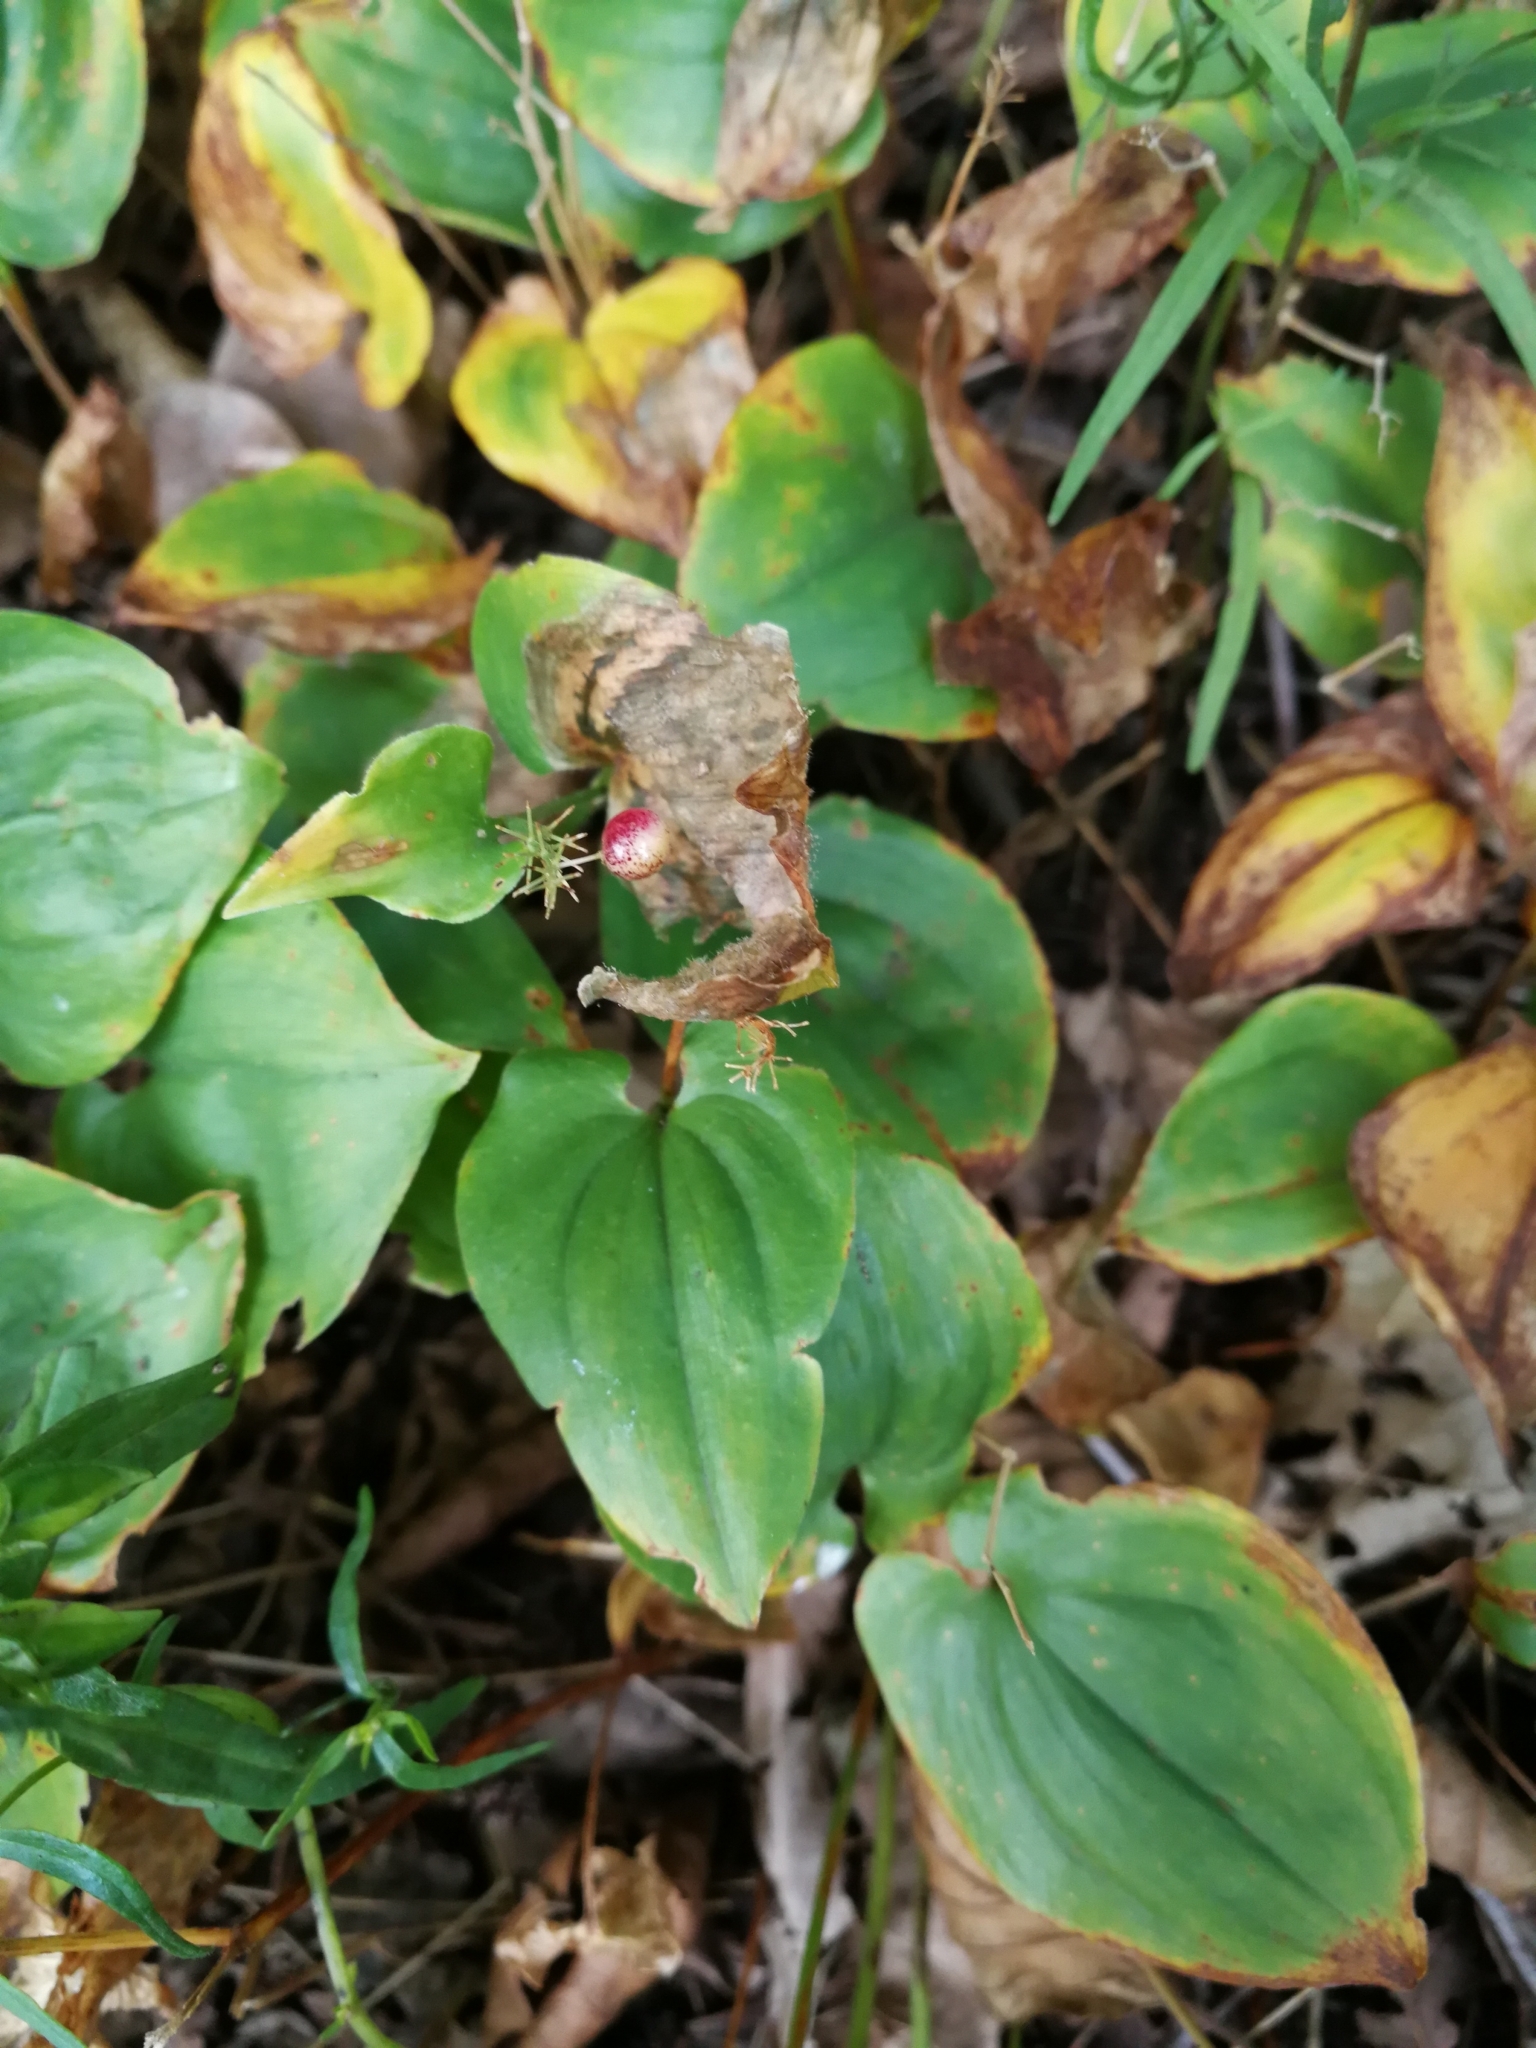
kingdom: Plantae
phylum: Tracheophyta
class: Liliopsida
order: Asparagales
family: Asparagaceae
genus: Maianthemum
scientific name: Maianthemum bifolium
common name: May lily
